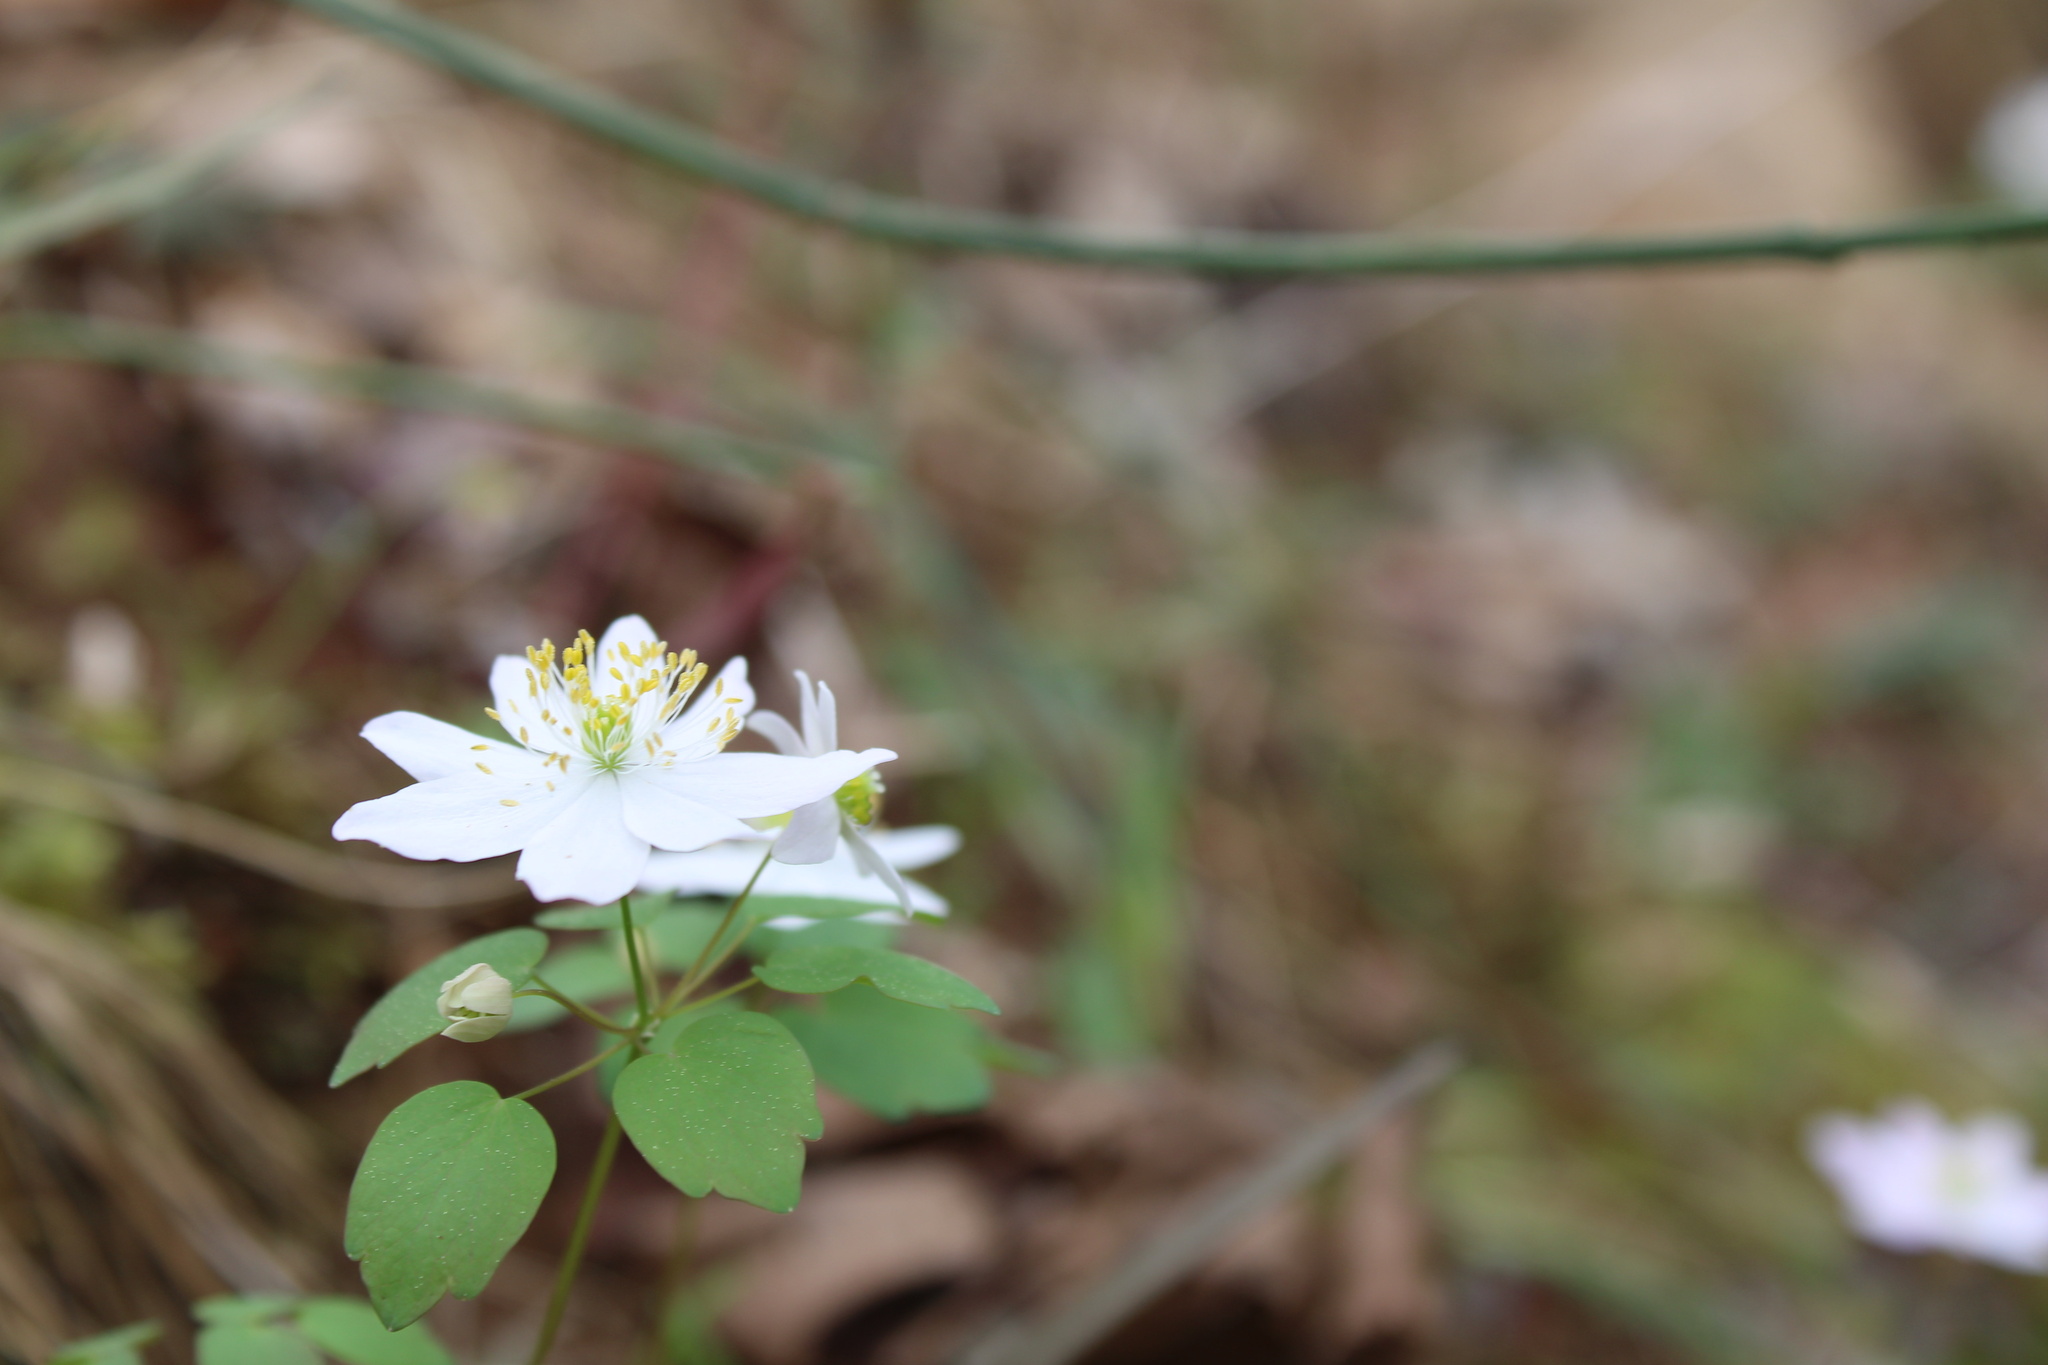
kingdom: Plantae
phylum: Tracheophyta
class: Magnoliopsida
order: Ranunculales
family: Ranunculaceae
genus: Thalictrum
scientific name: Thalictrum thalictroides
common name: Rue-anemone
